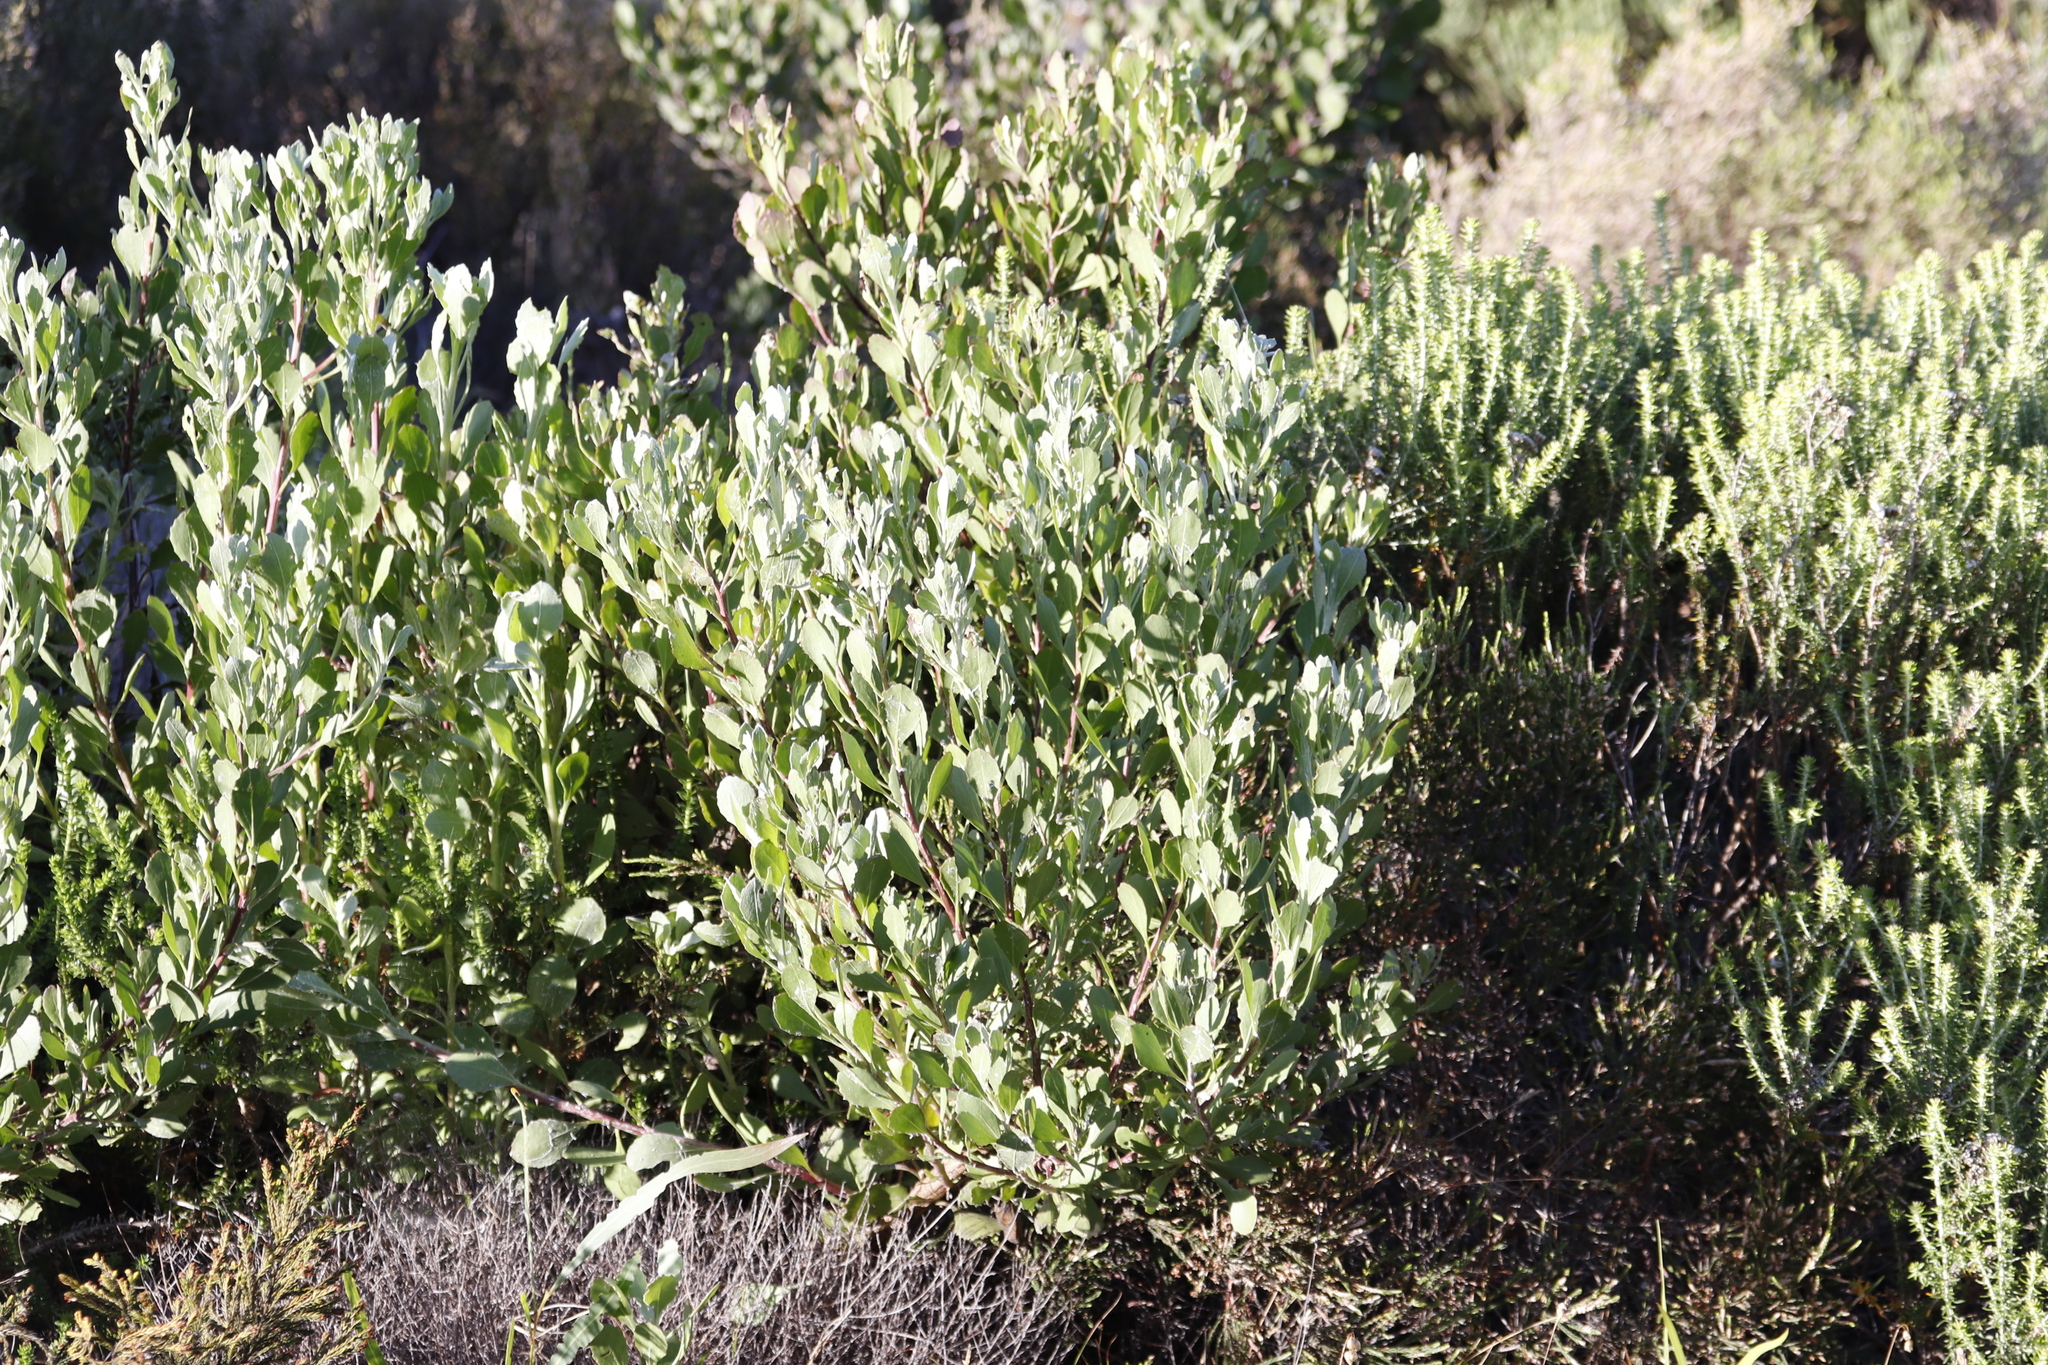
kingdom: Plantae
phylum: Tracheophyta
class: Magnoliopsida
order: Asterales
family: Asteraceae
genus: Osteospermum
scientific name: Osteospermum moniliferum
